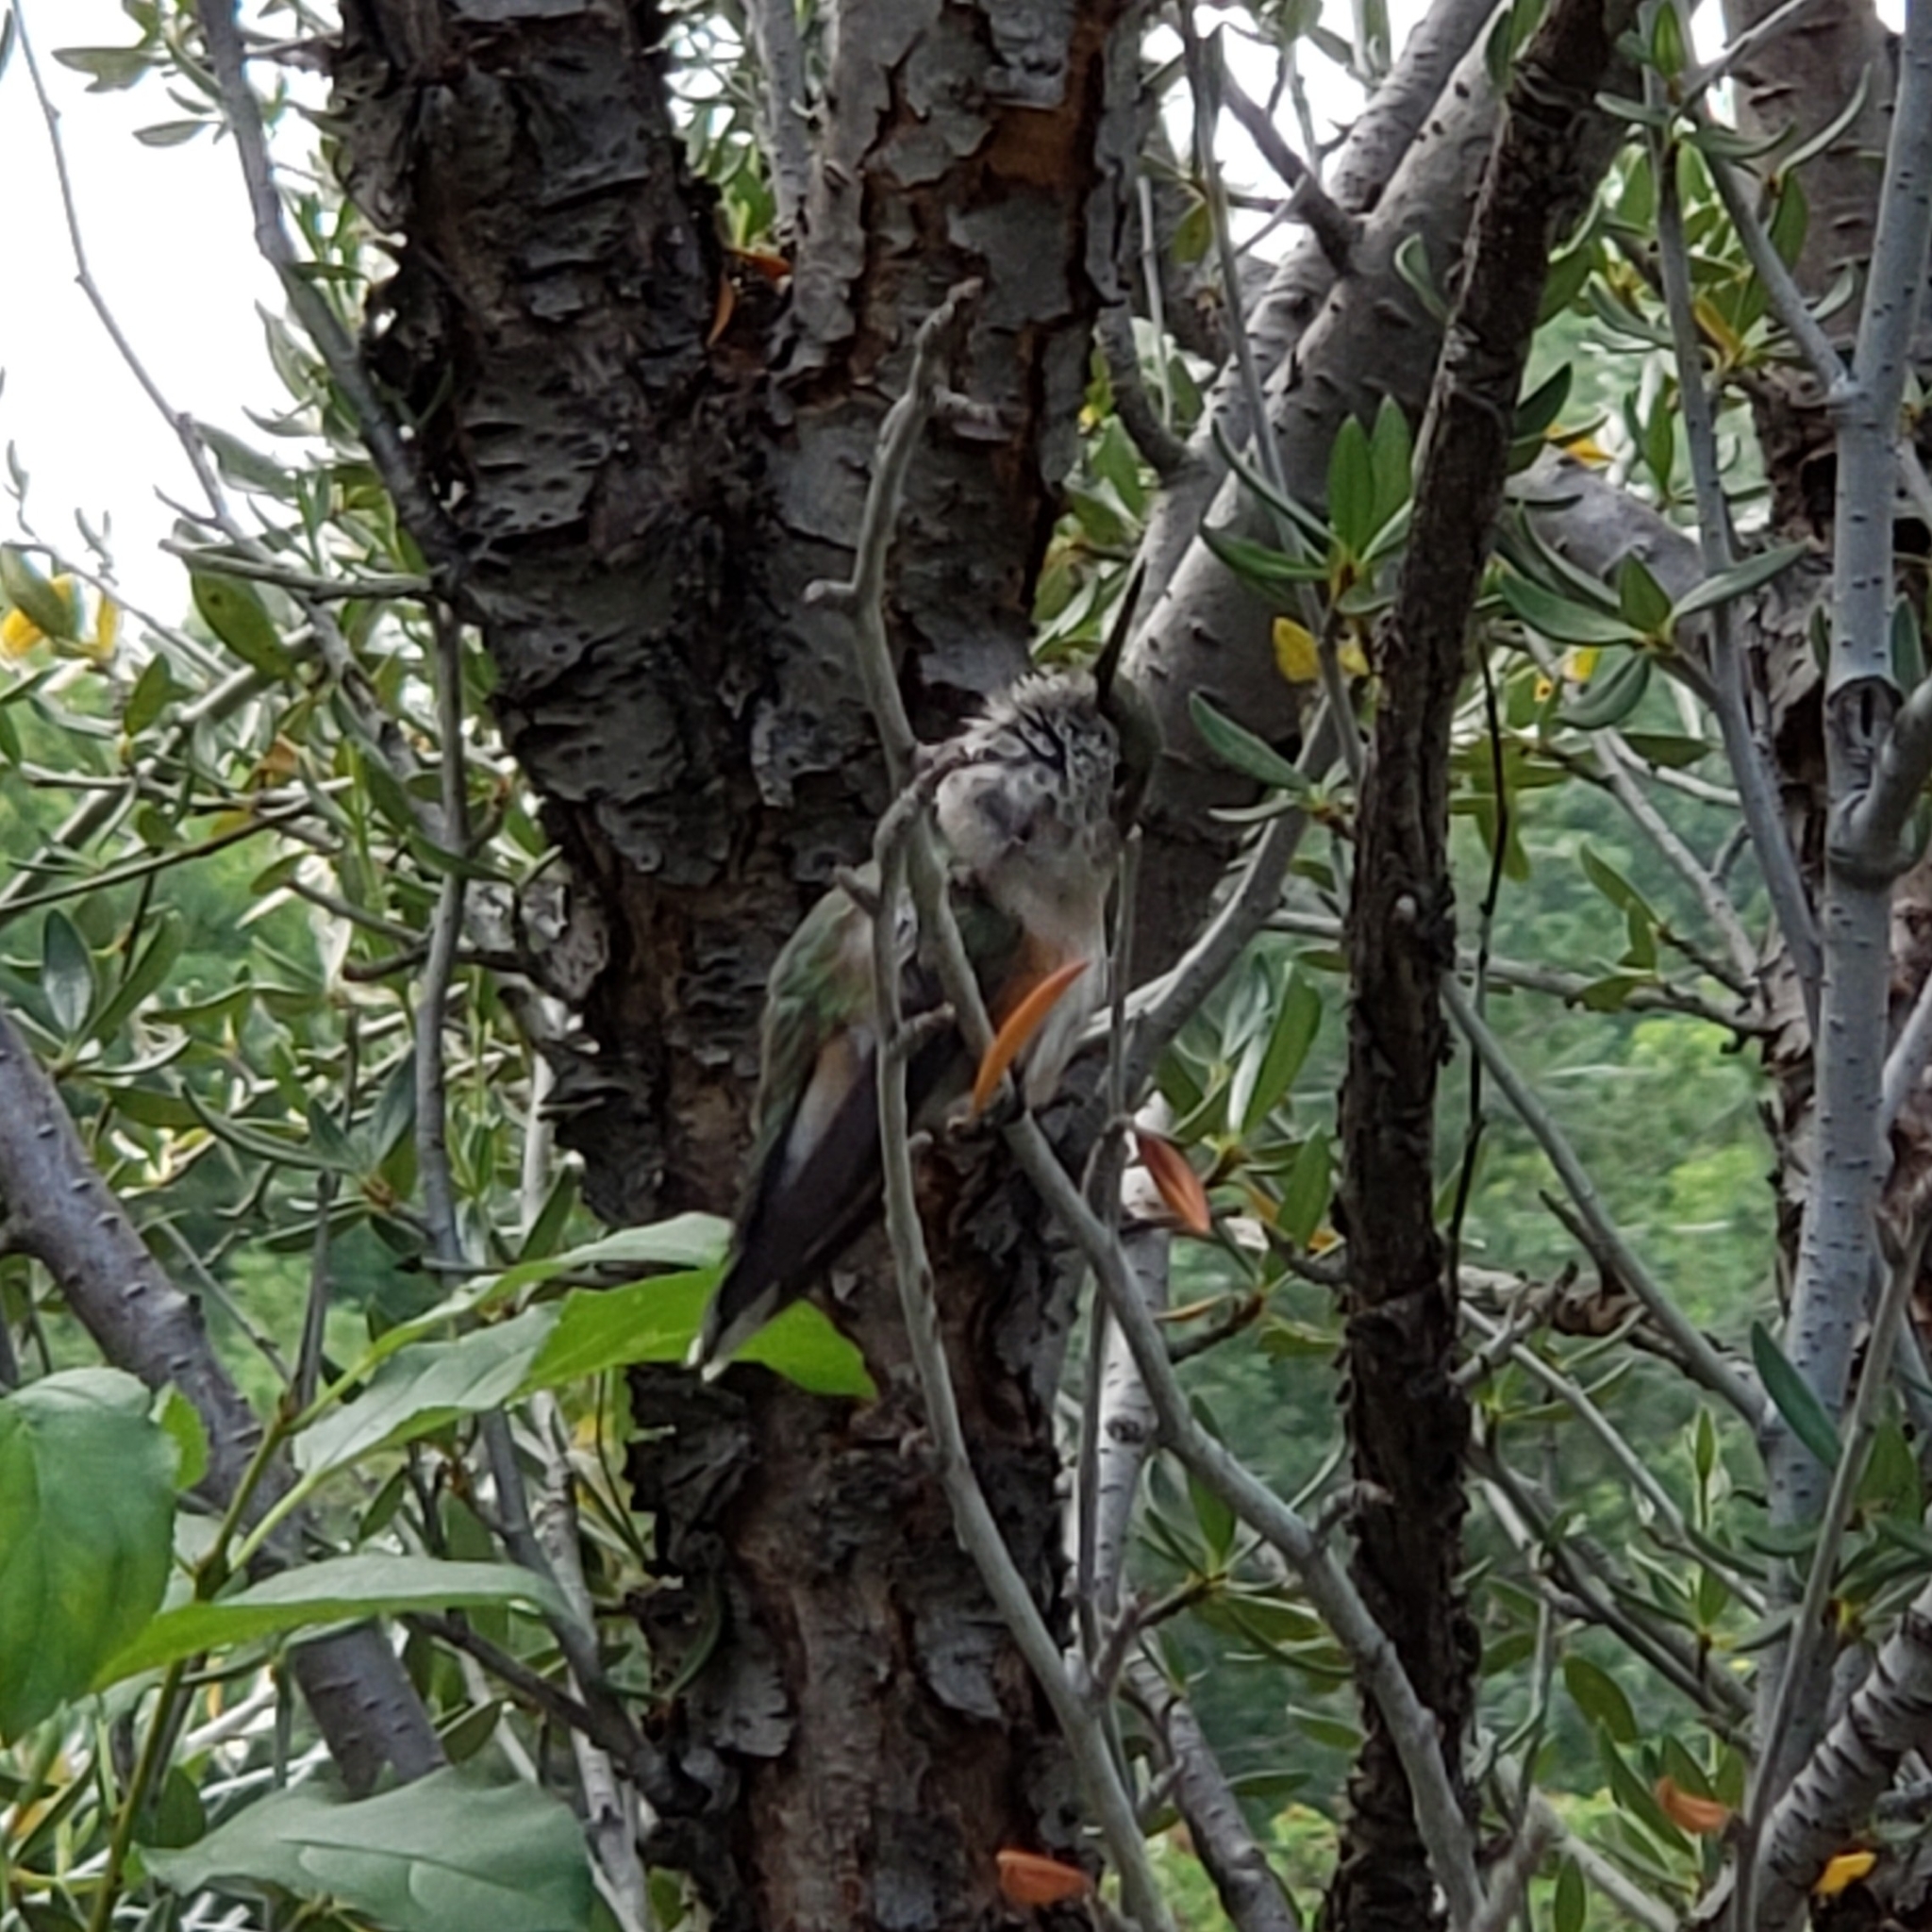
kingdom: Animalia
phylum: Chordata
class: Aves
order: Apodiformes
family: Trochilidae
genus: Selasphorus
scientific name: Selasphorus platycercus
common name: Broad-tailed hummingbird
